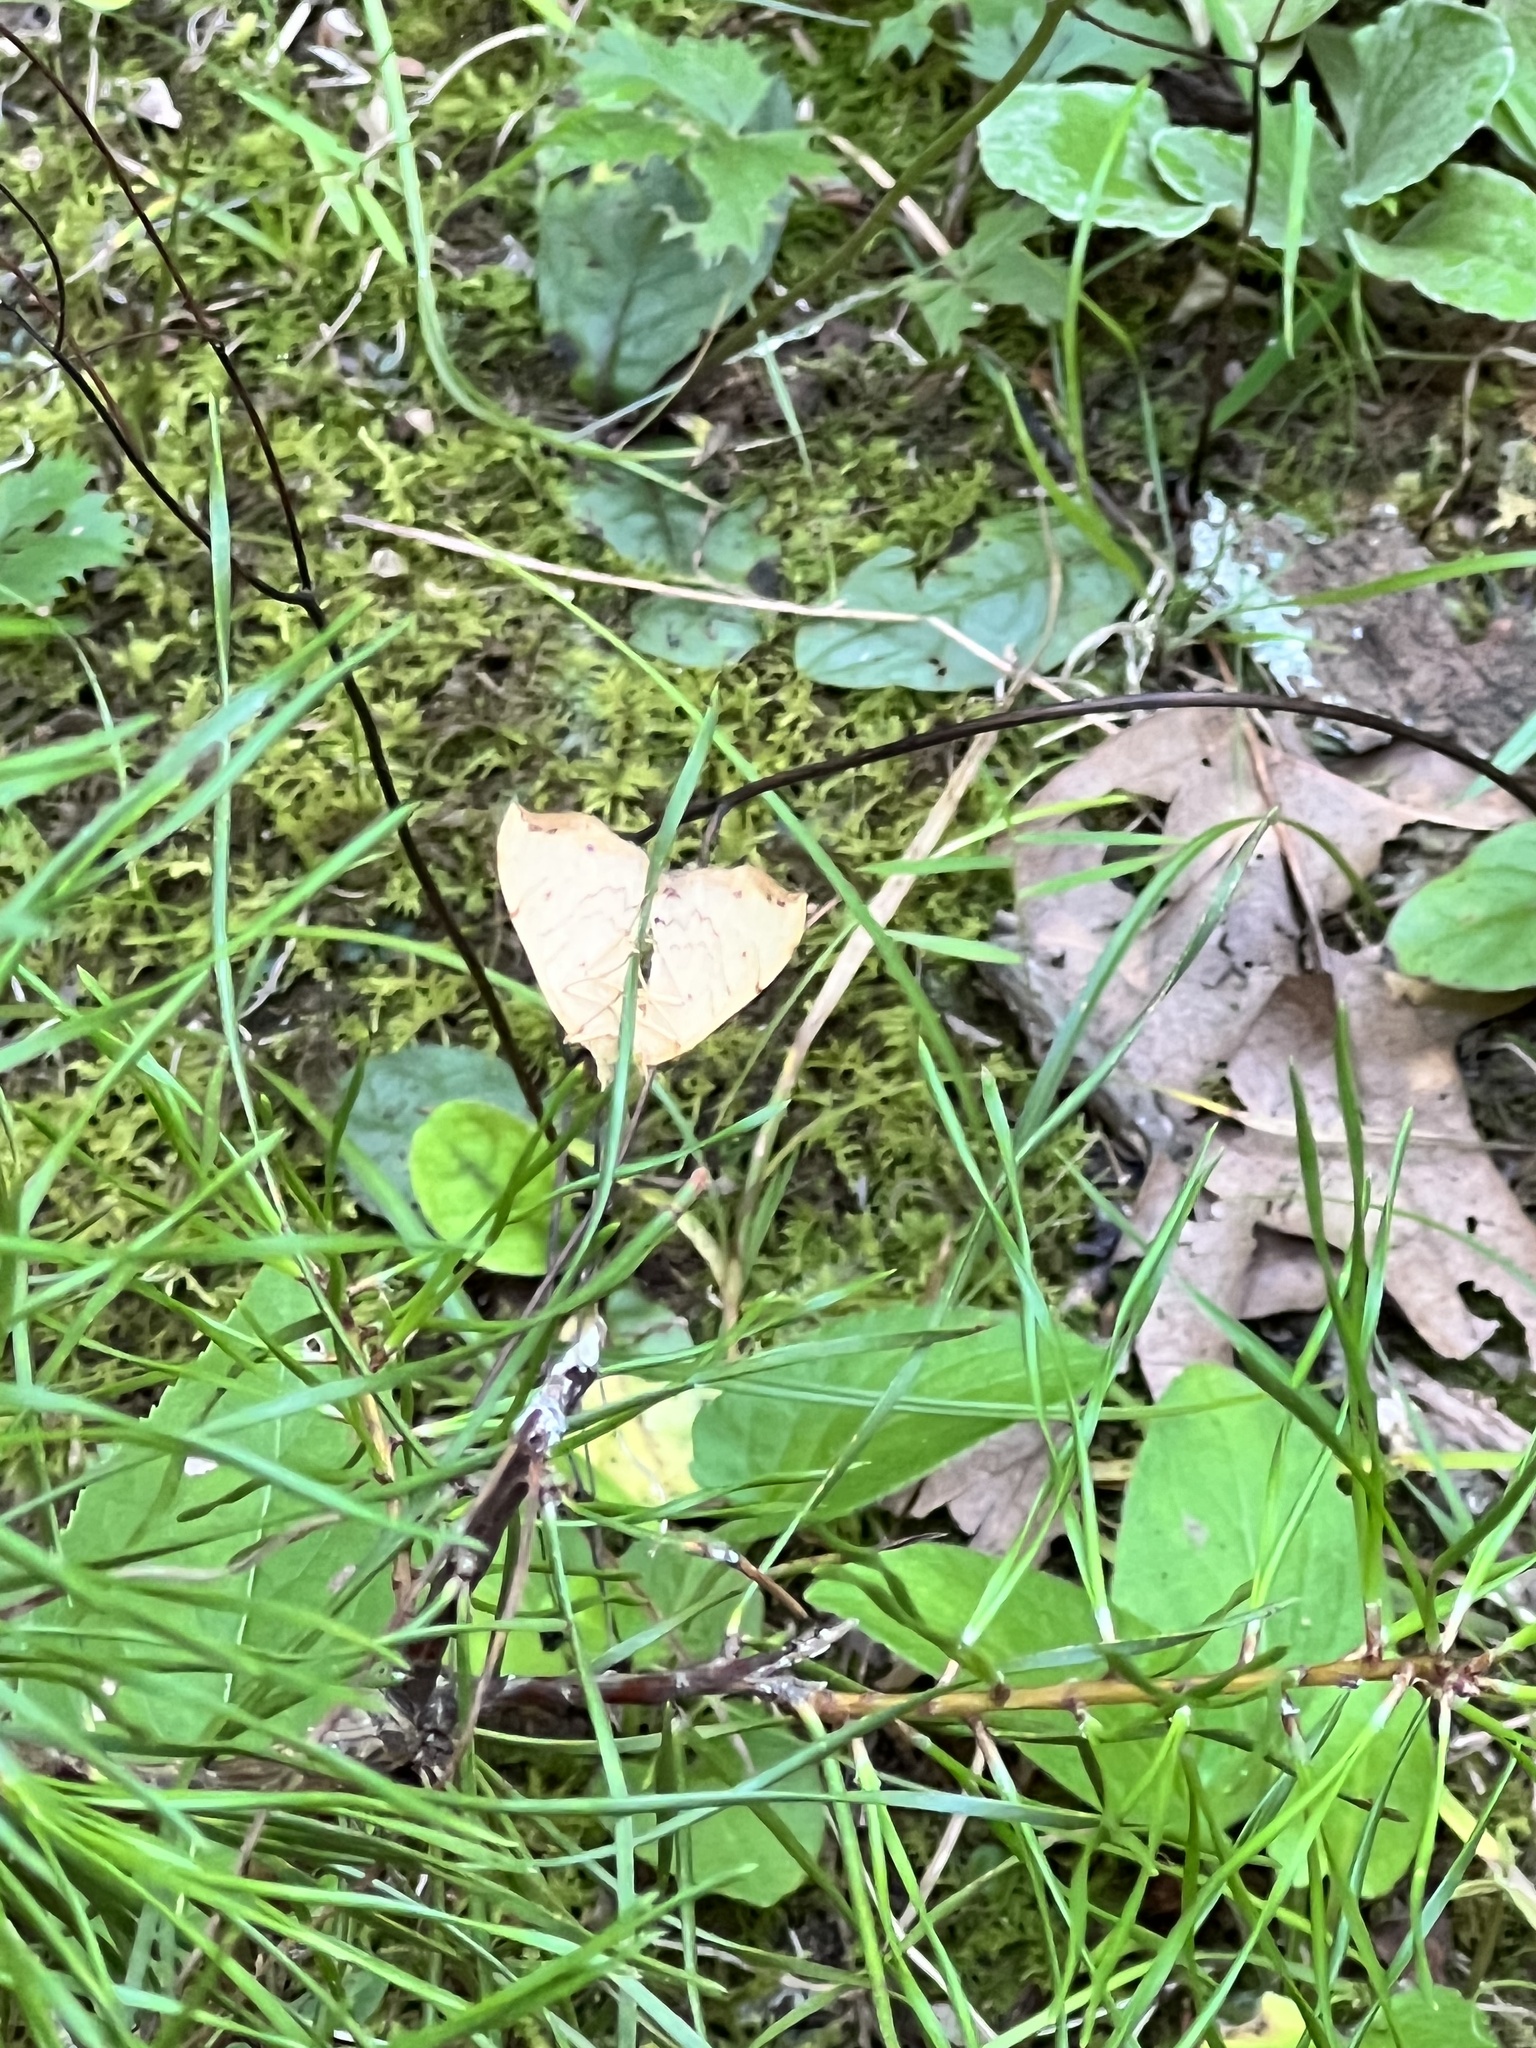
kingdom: Animalia
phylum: Arthropoda
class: Insecta
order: Lepidoptera
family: Geometridae
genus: Eulithis
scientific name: Eulithis
